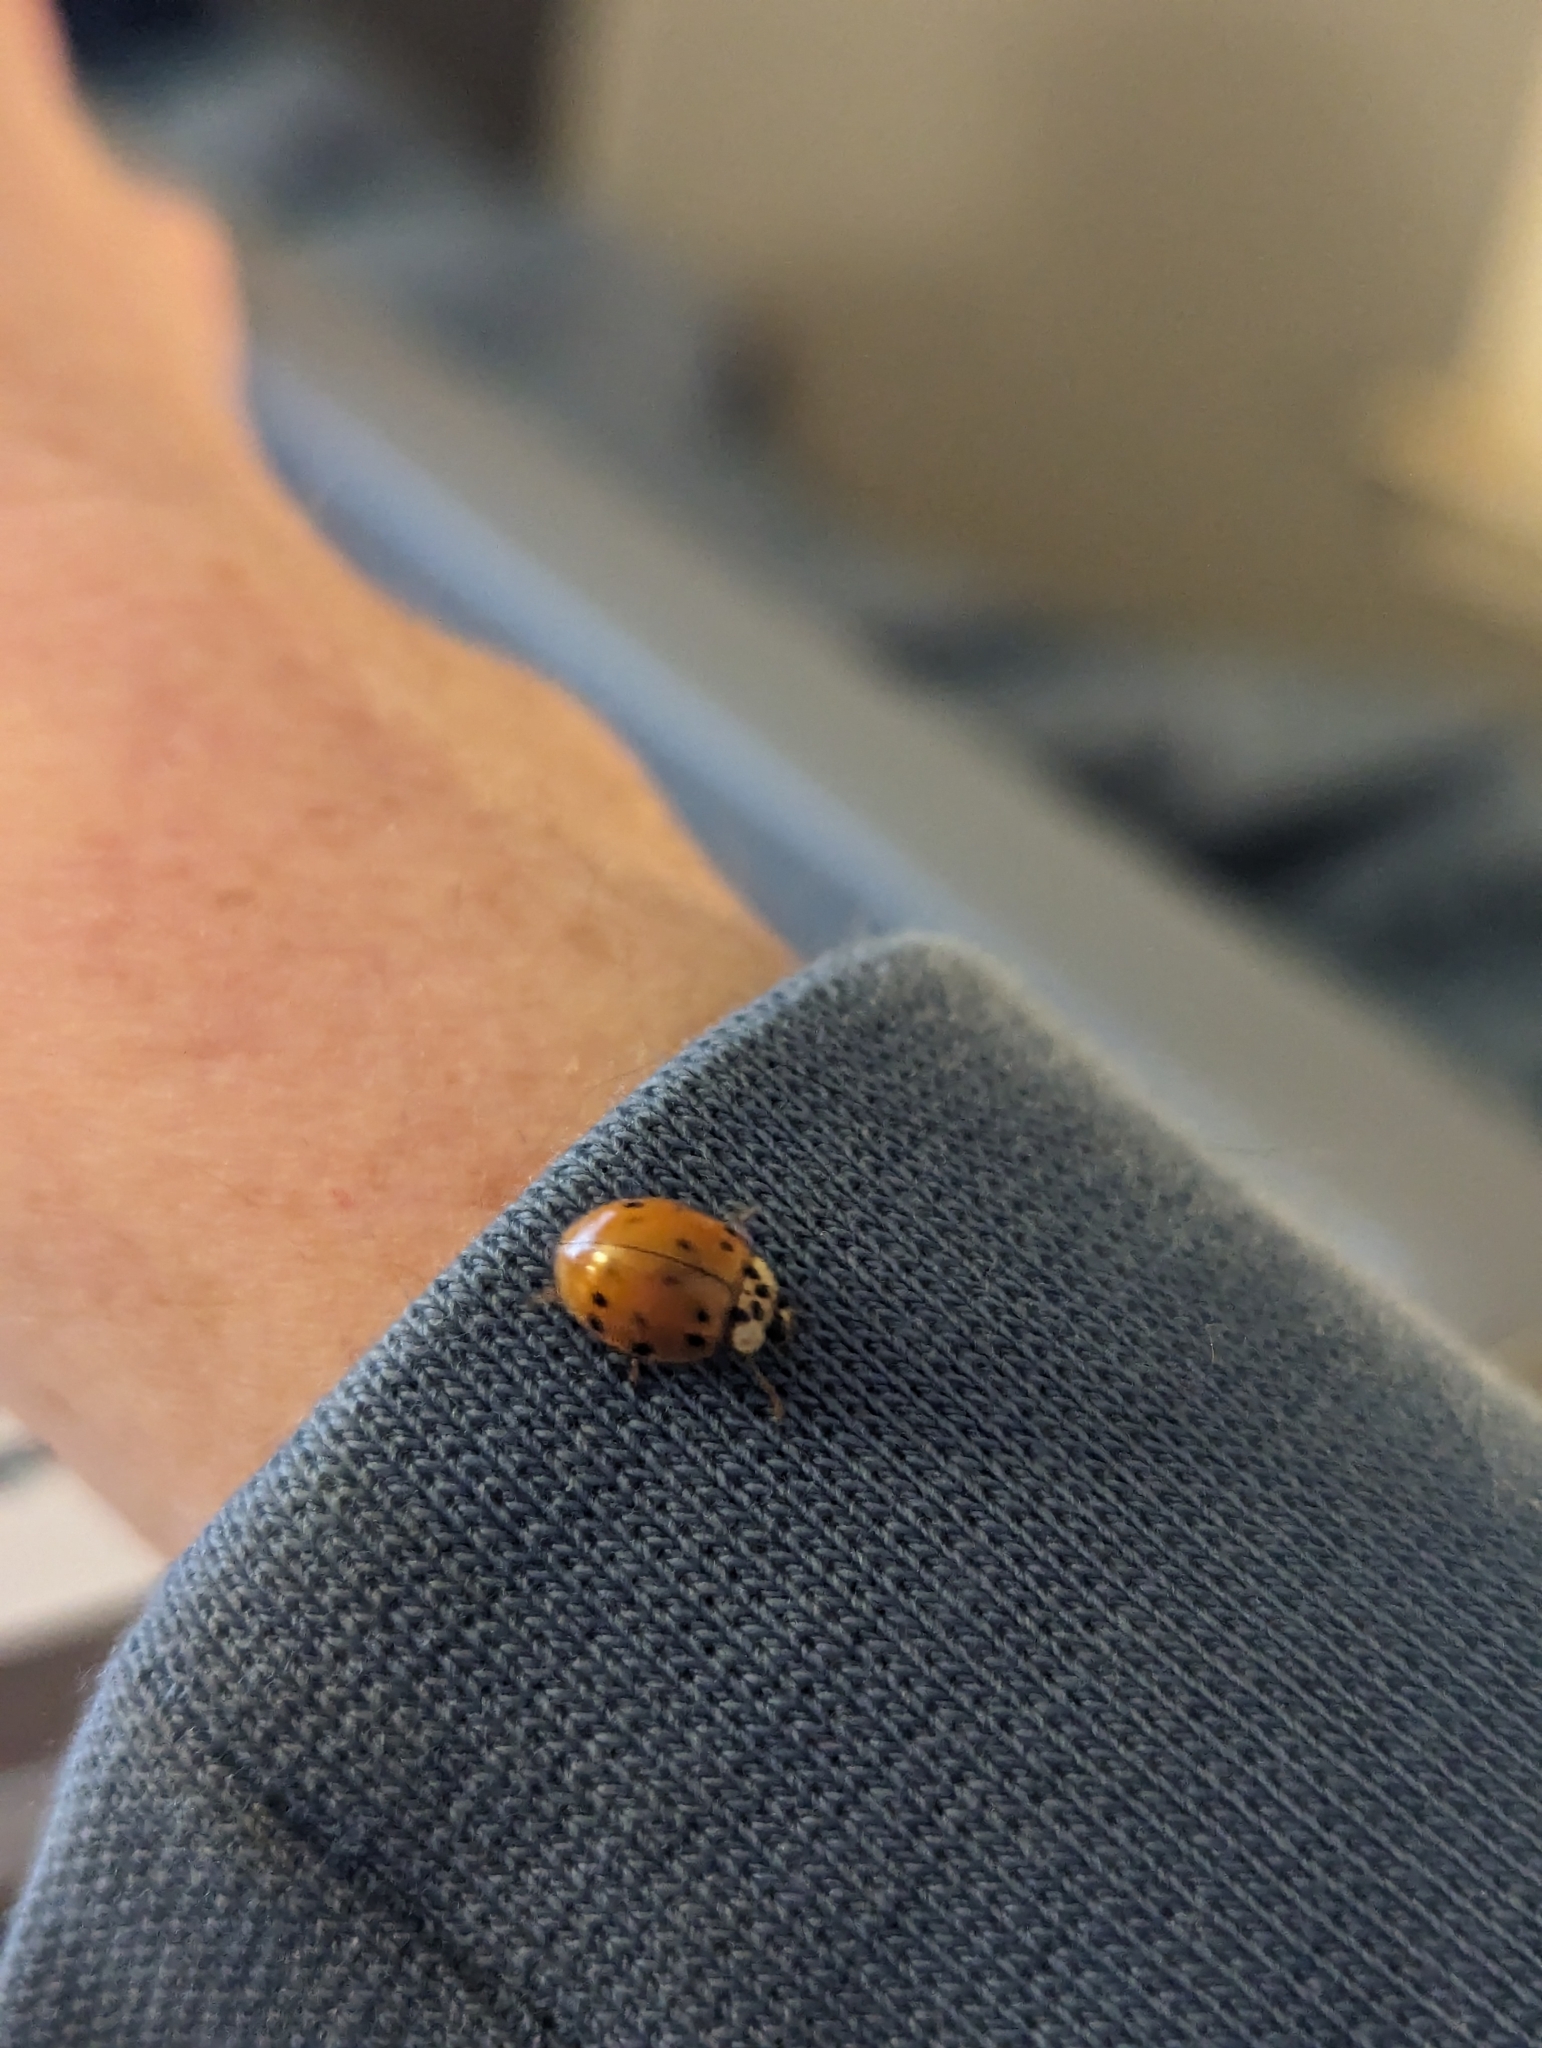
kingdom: Animalia
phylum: Arthropoda
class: Insecta
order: Coleoptera
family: Coccinellidae
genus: Harmonia
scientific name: Harmonia axyridis
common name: Harlequin ladybird
